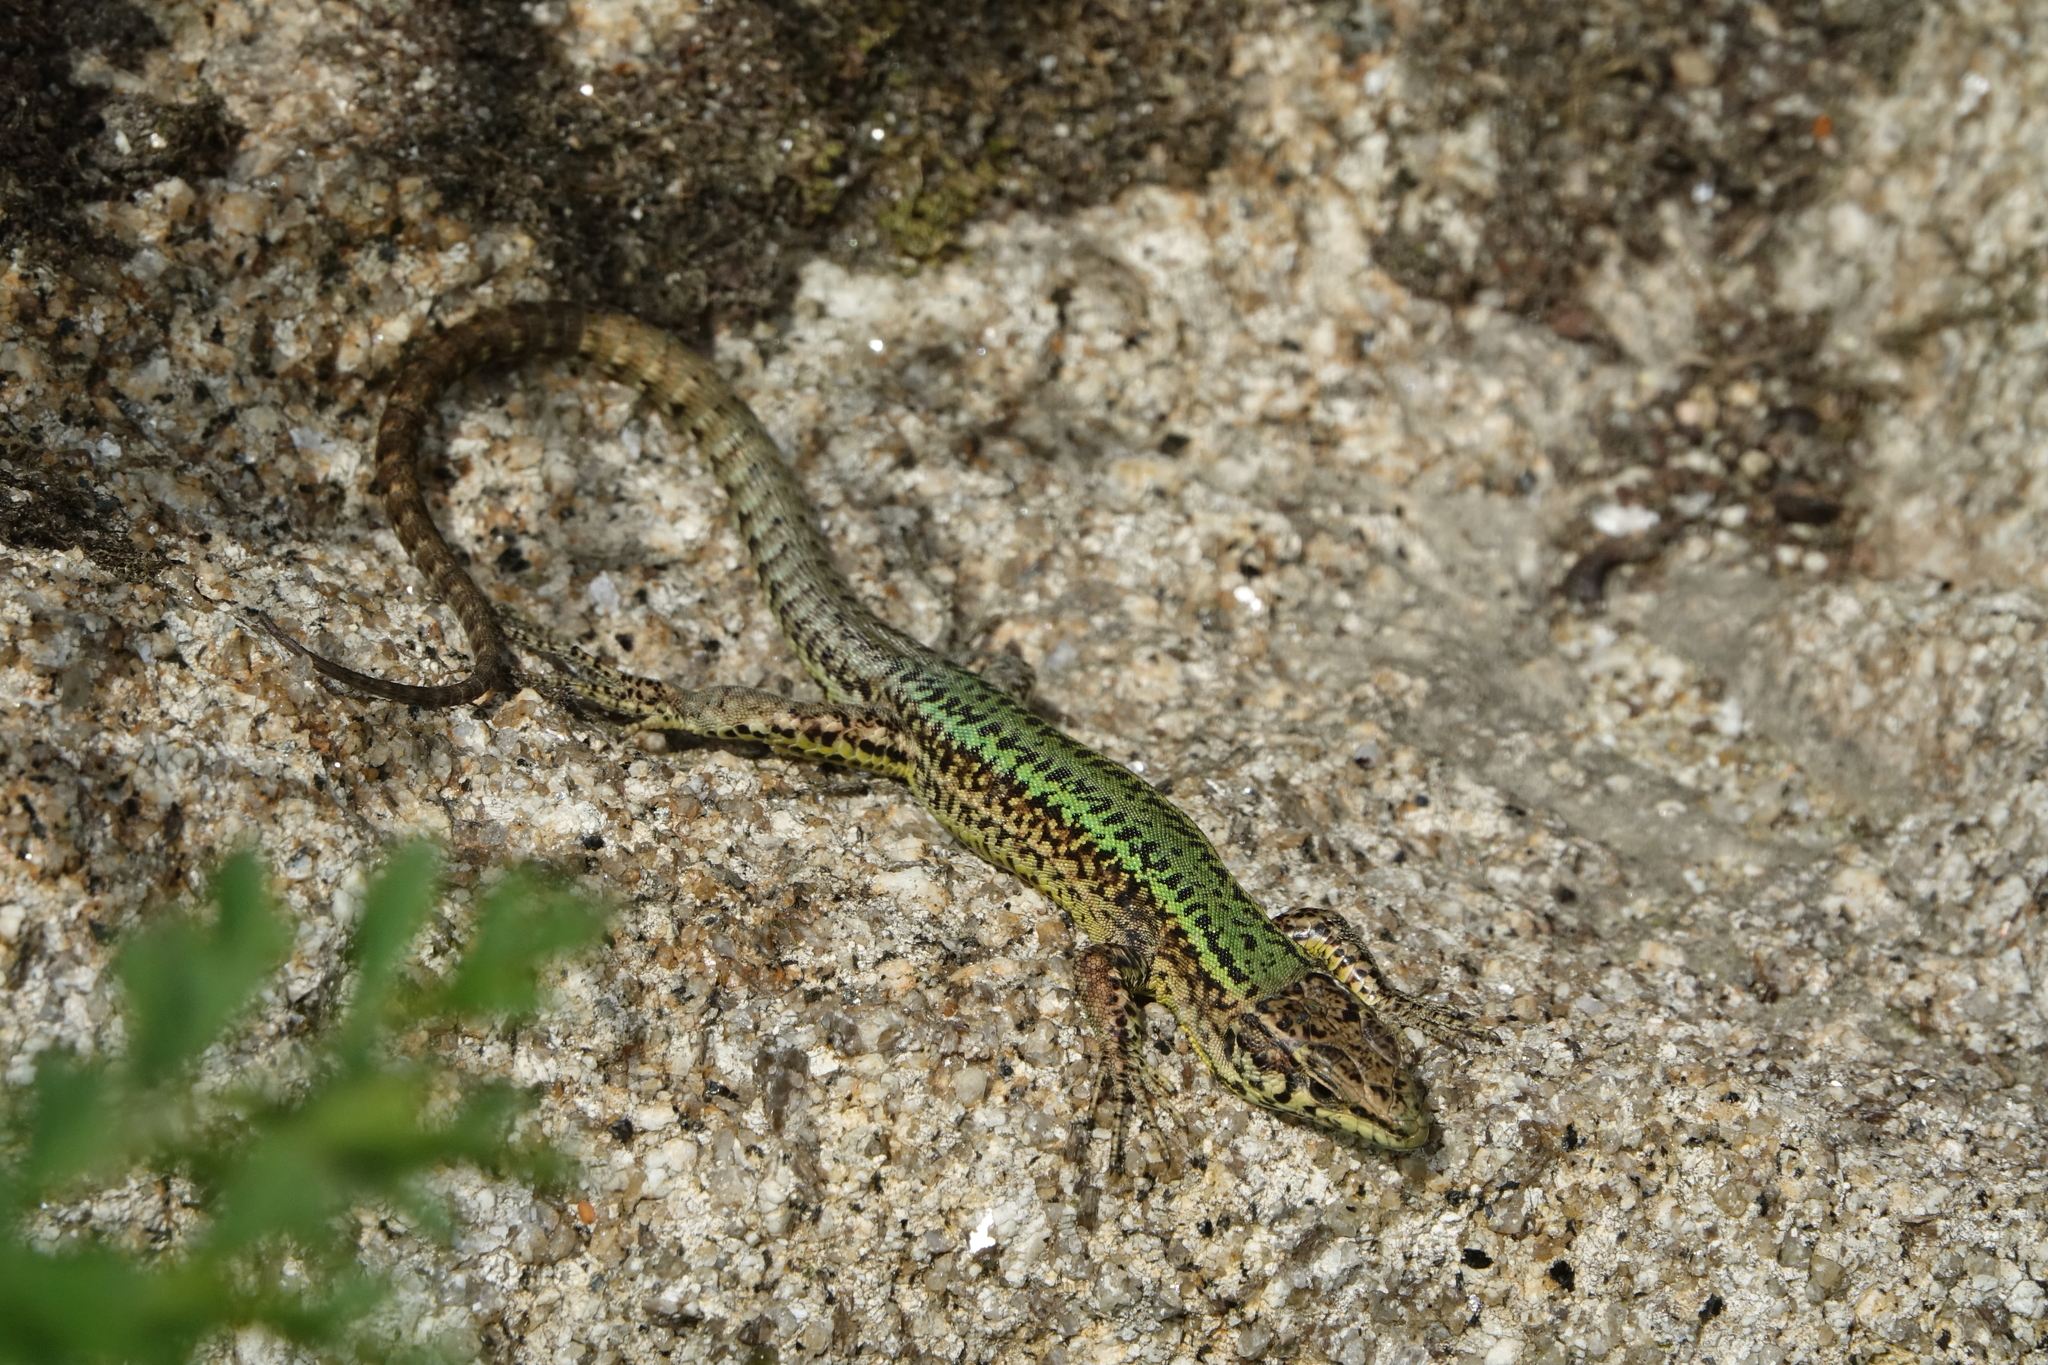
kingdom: Animalia
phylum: Chordata
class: Squamata
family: Lacertidae
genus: Podarcis
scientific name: Podarcis bocagei
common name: Bocage's wall lizard
